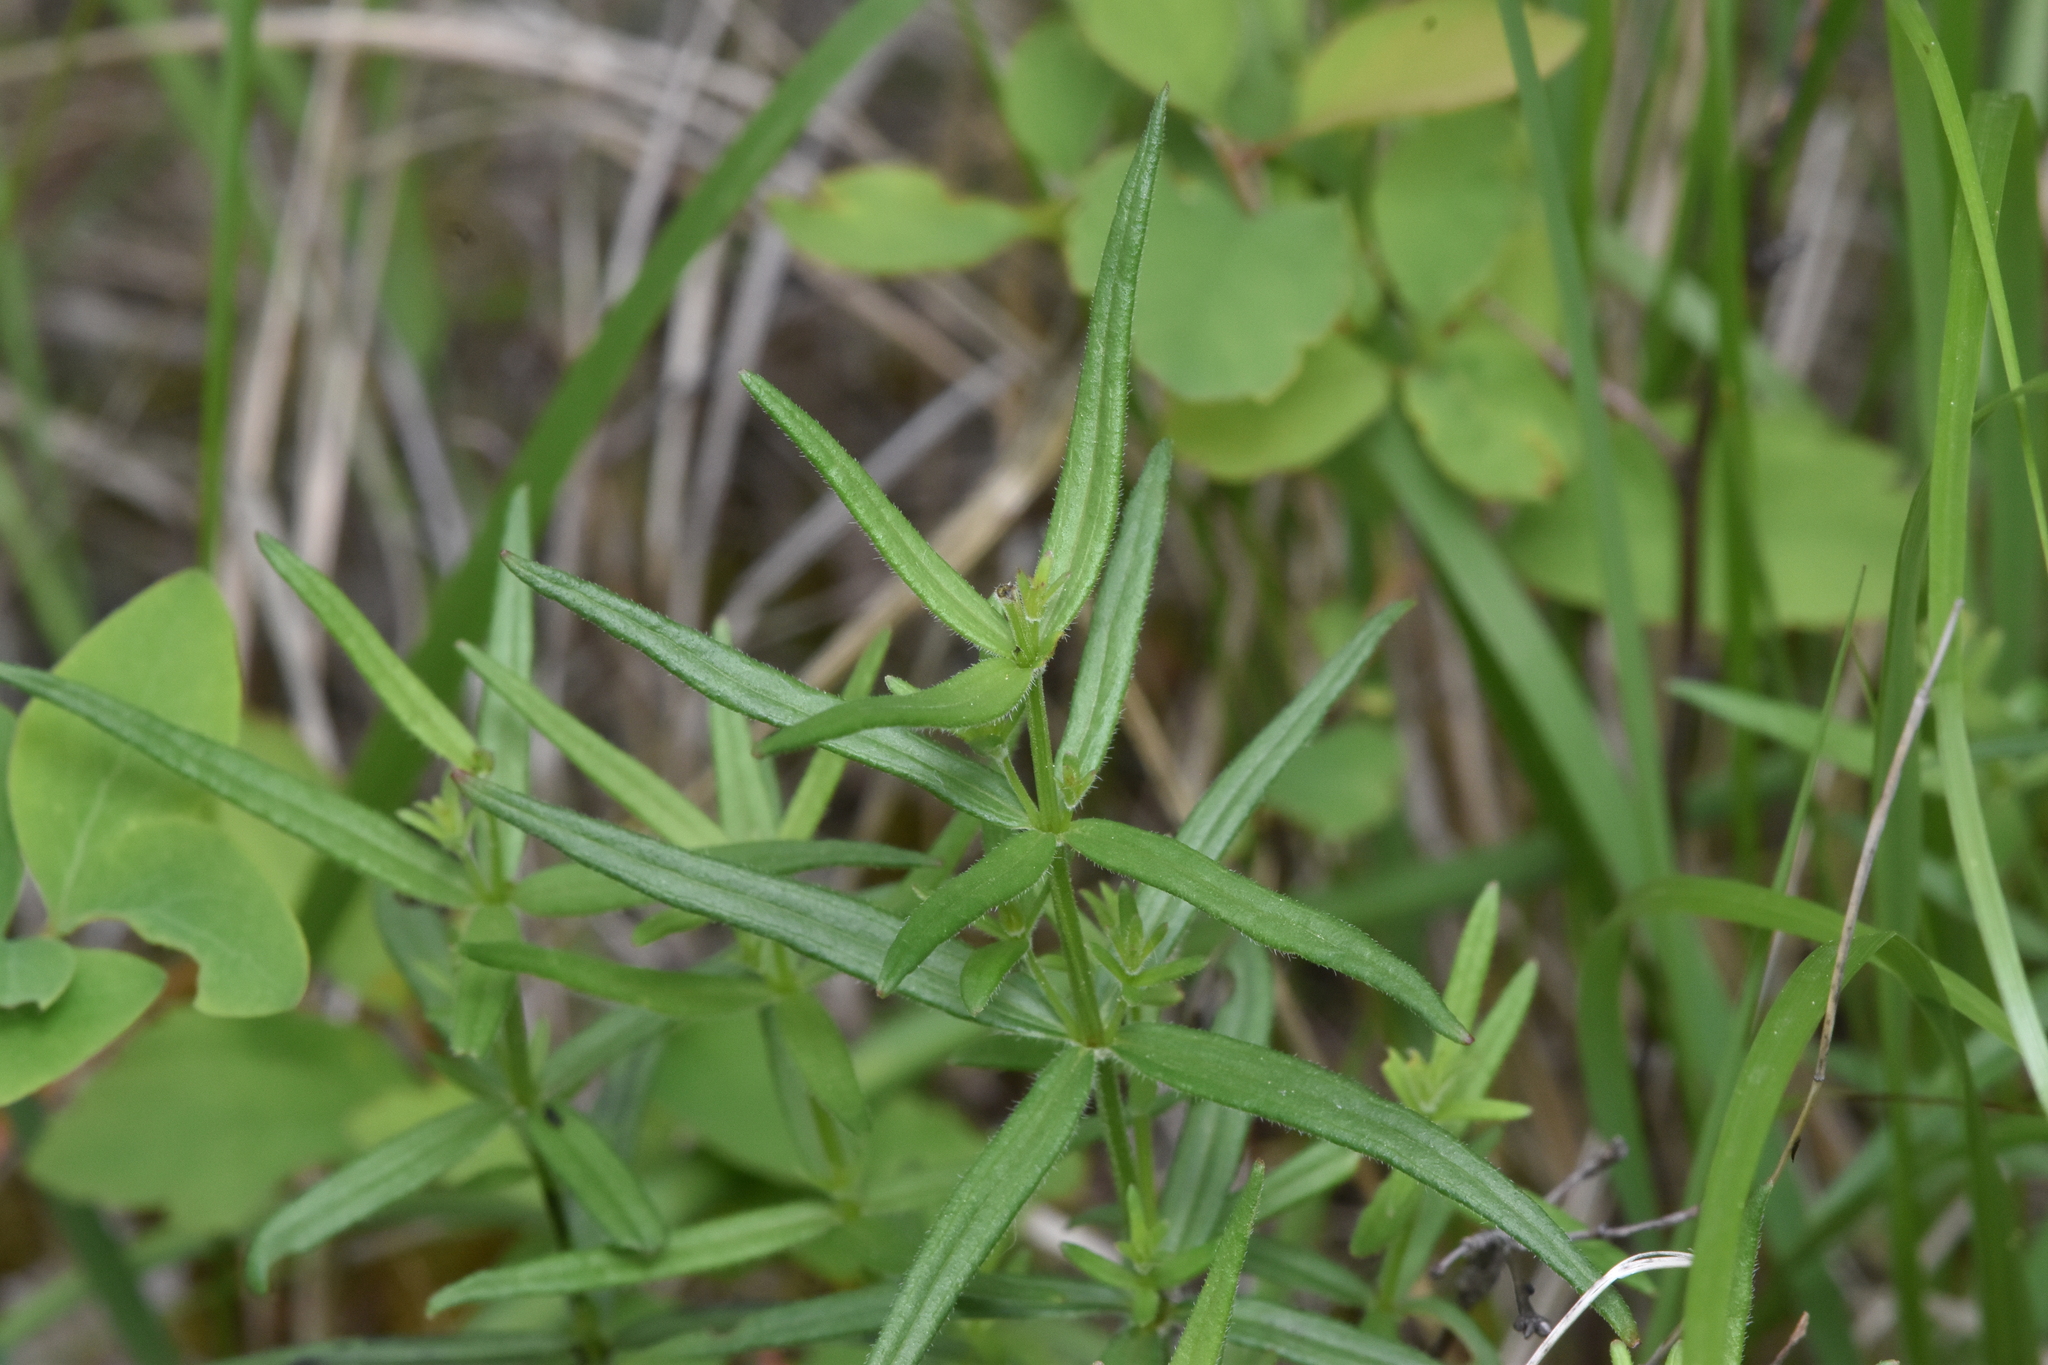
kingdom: Plantae
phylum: Tracheophyta
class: Magnoliopsida
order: Gentianales
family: Rubiaceae
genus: Galium
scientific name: Galium boreale
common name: Northern bedstraw
